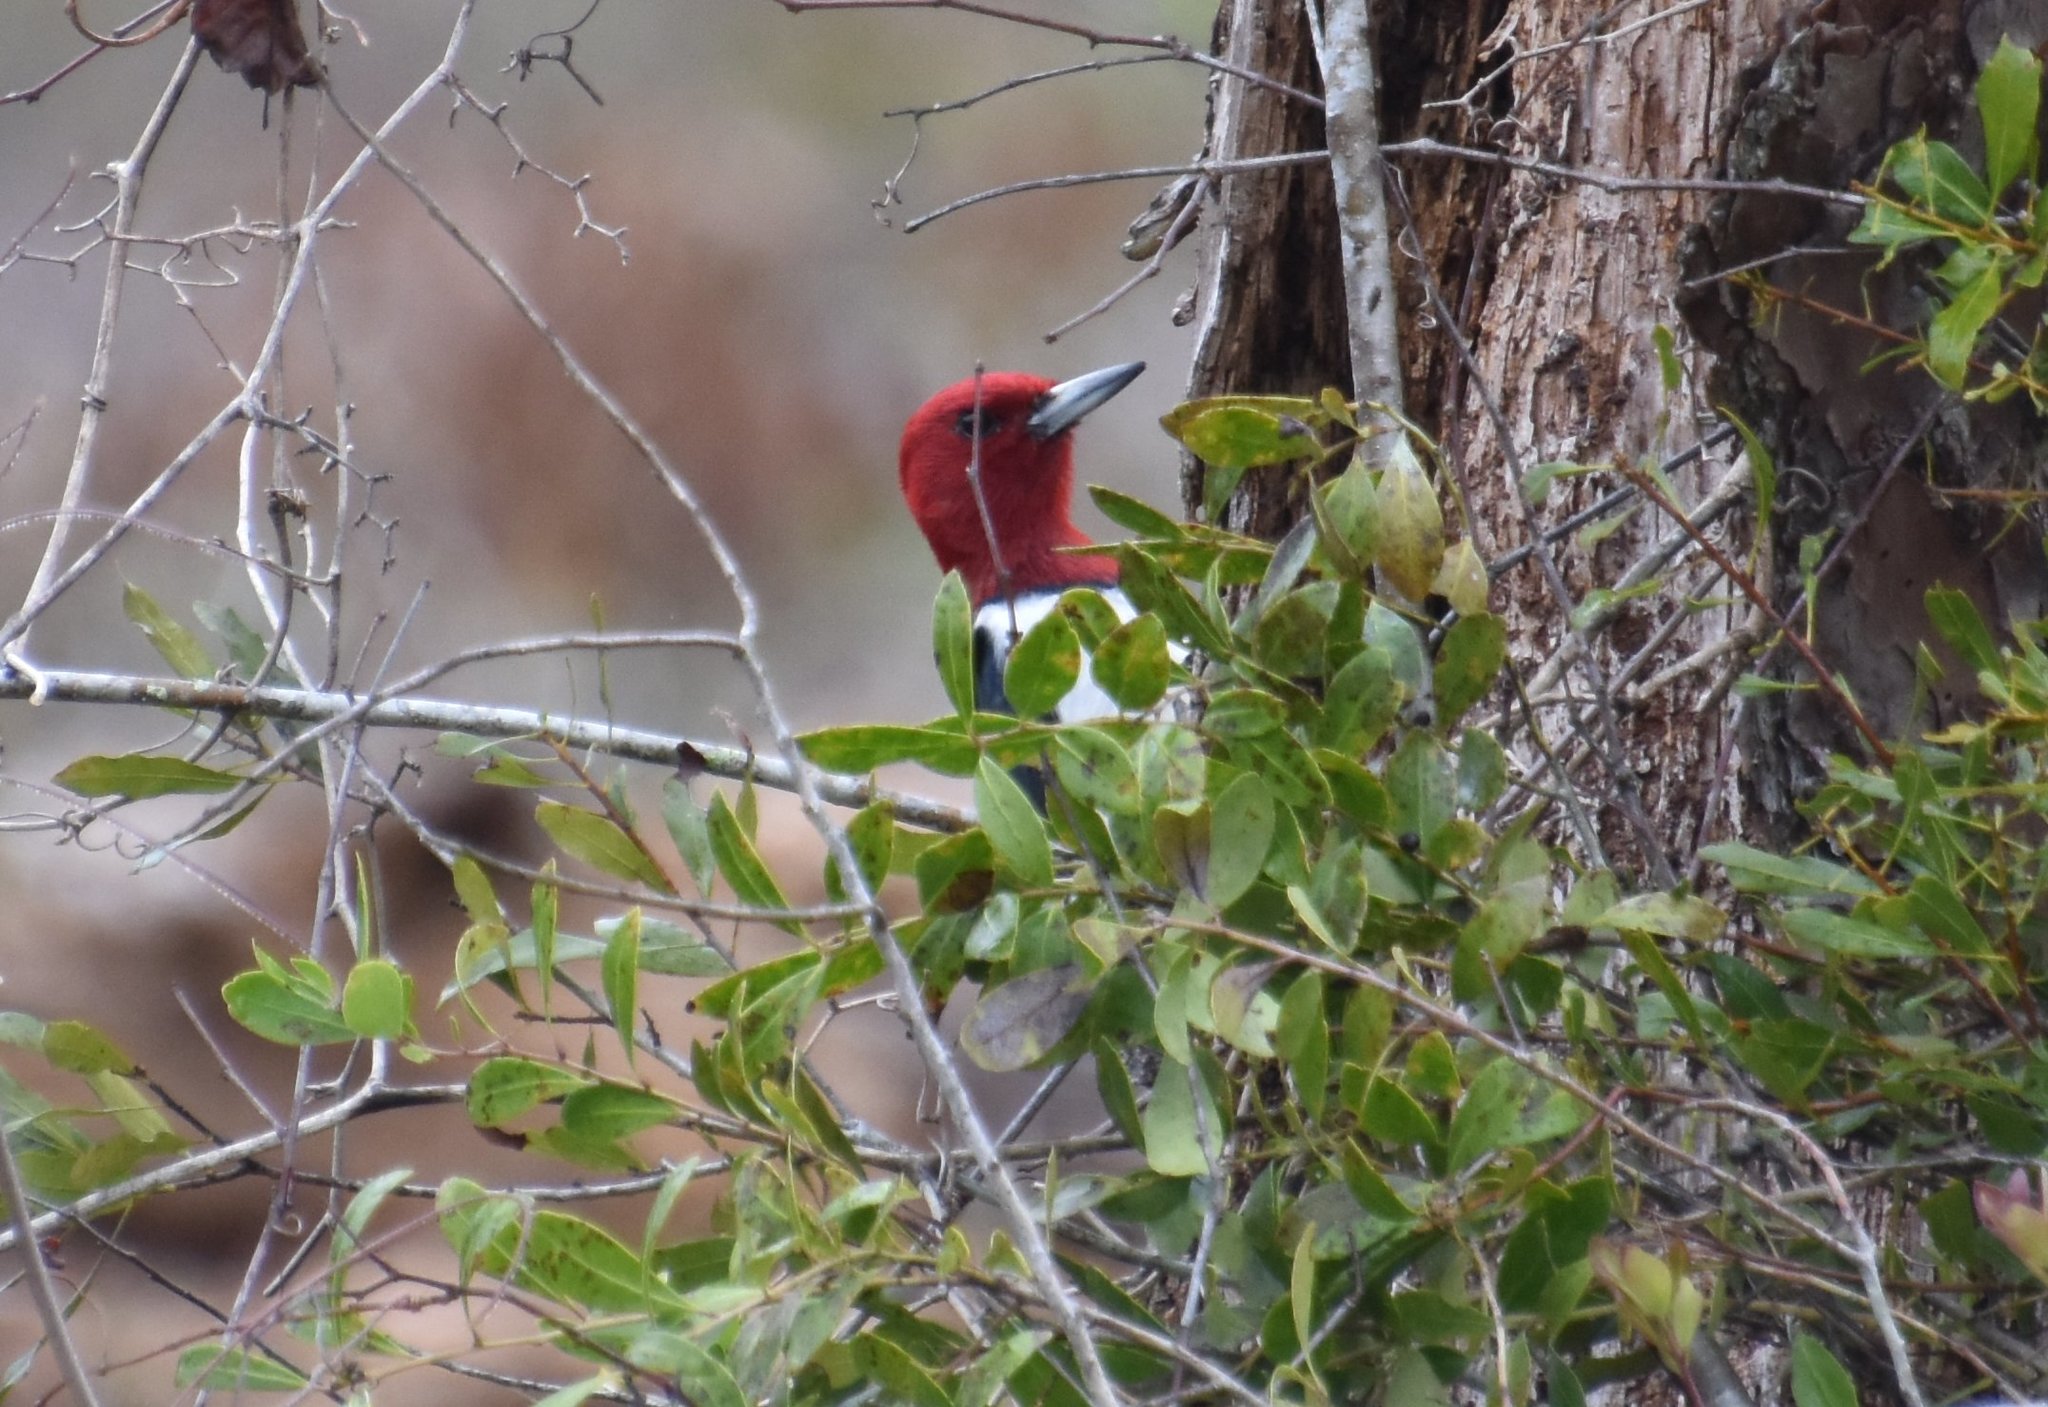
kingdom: Animalia
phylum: Chordata
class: Aves
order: Piciformes
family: Picidae
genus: Melanerpes
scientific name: Melanerpes erythrocephalus
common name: Red-headed woodpecker
